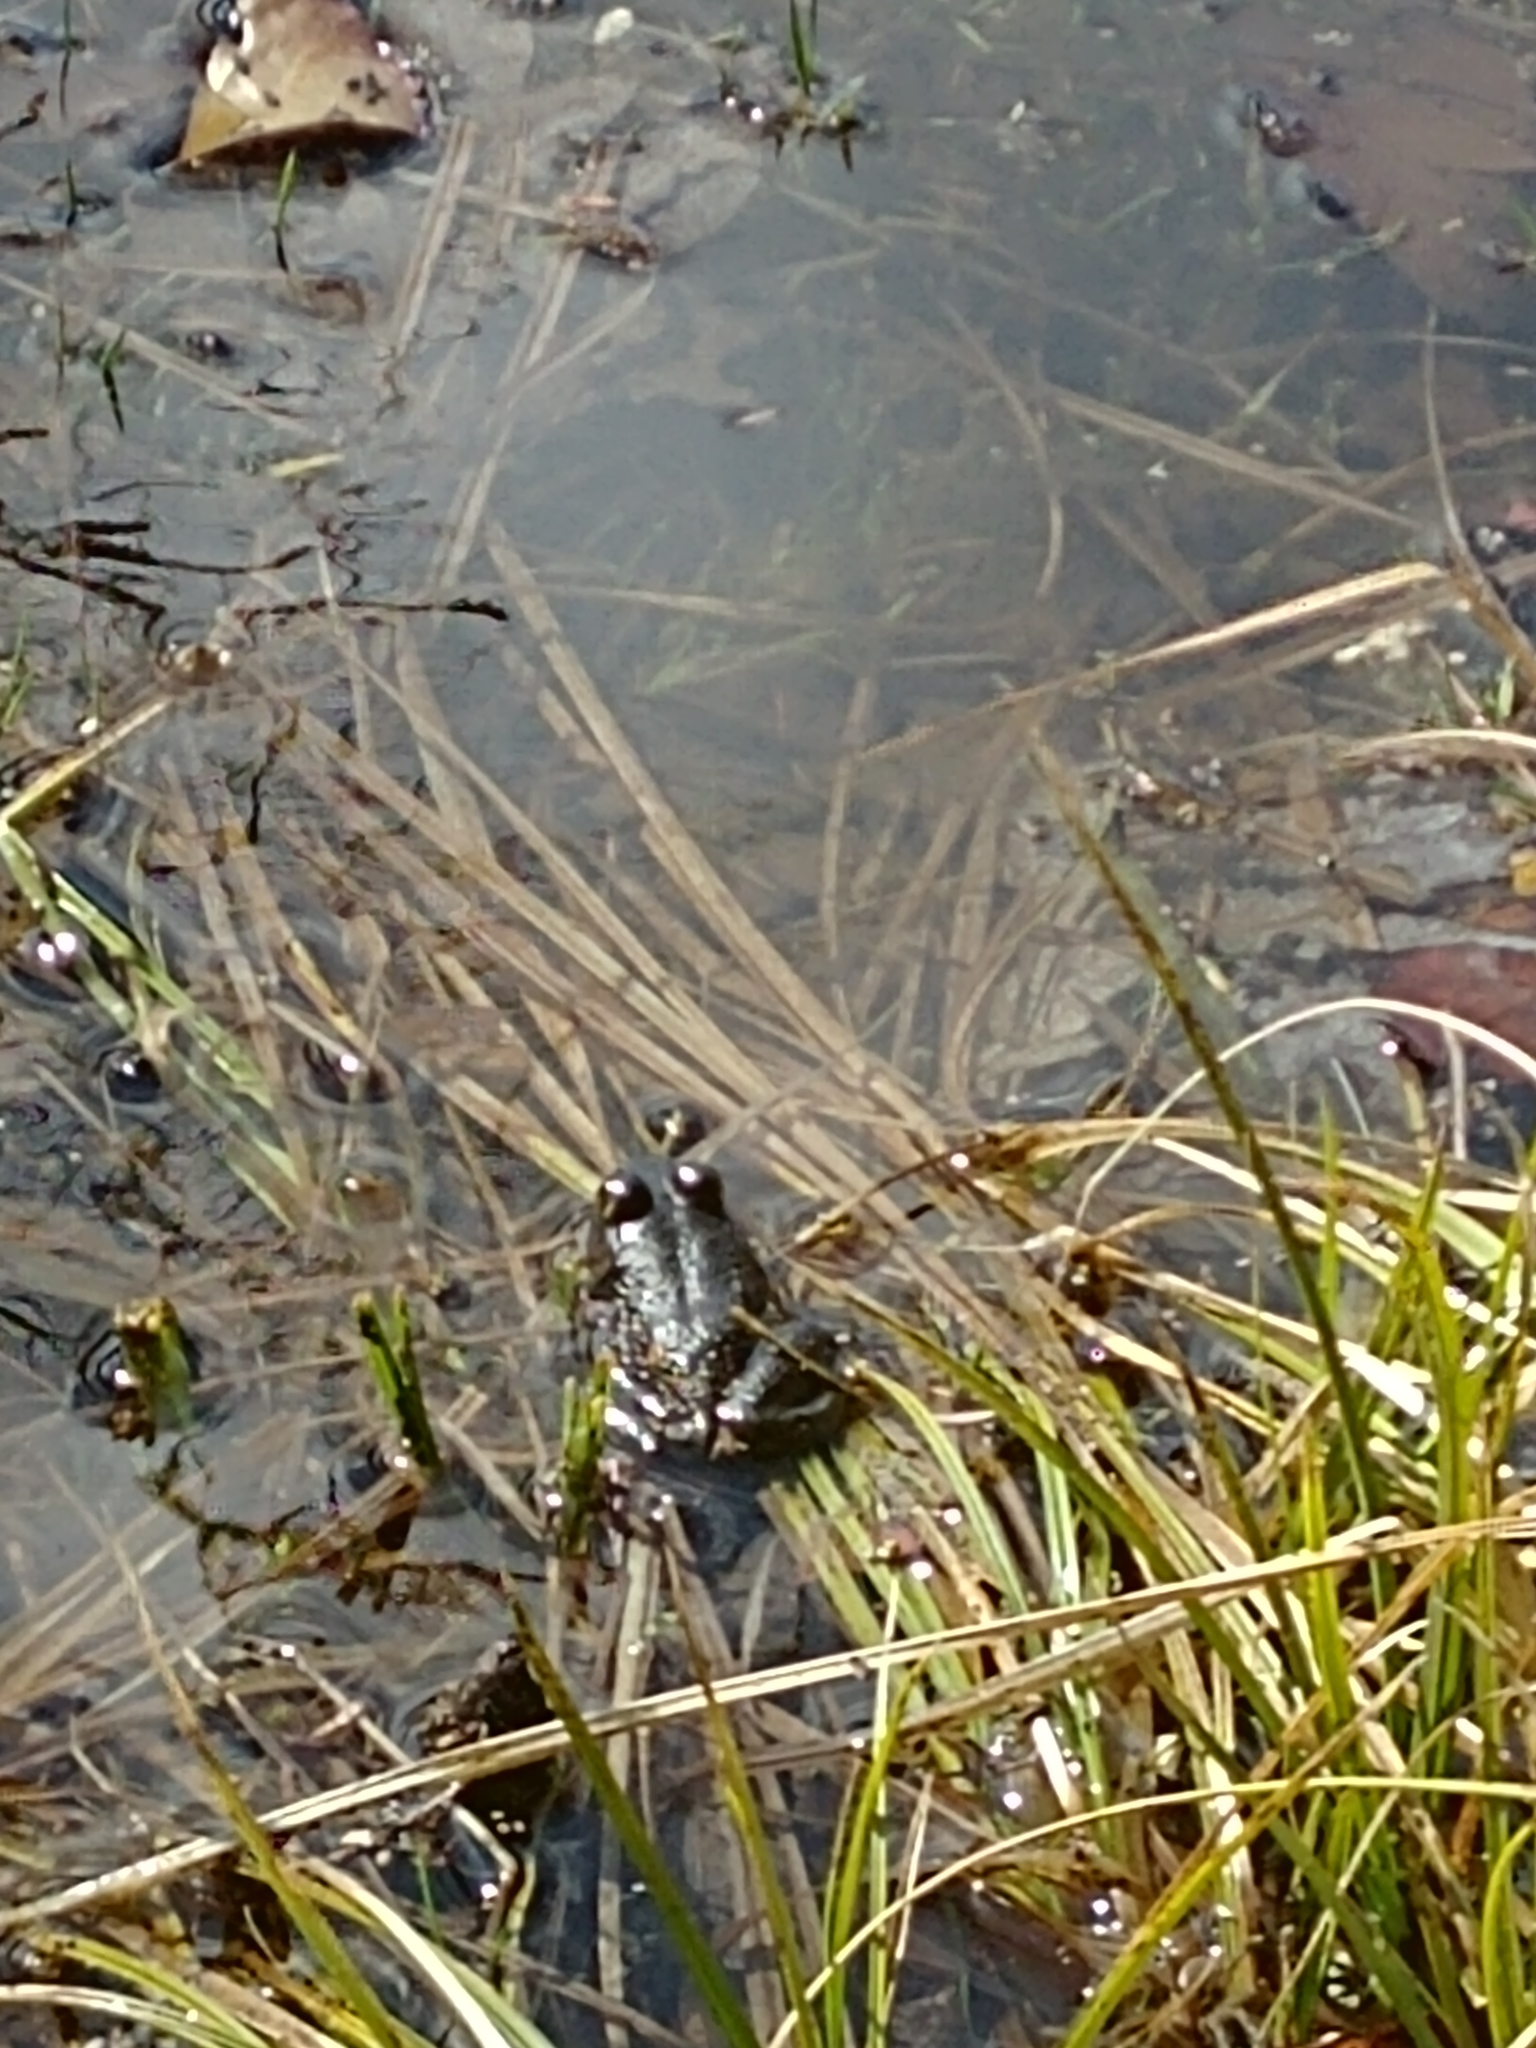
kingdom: Animalia
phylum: Chordata
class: Amphibia
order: Anura
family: Ranidae
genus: Lithobates
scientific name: Lithobates catesbeianus
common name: American bullfrog
